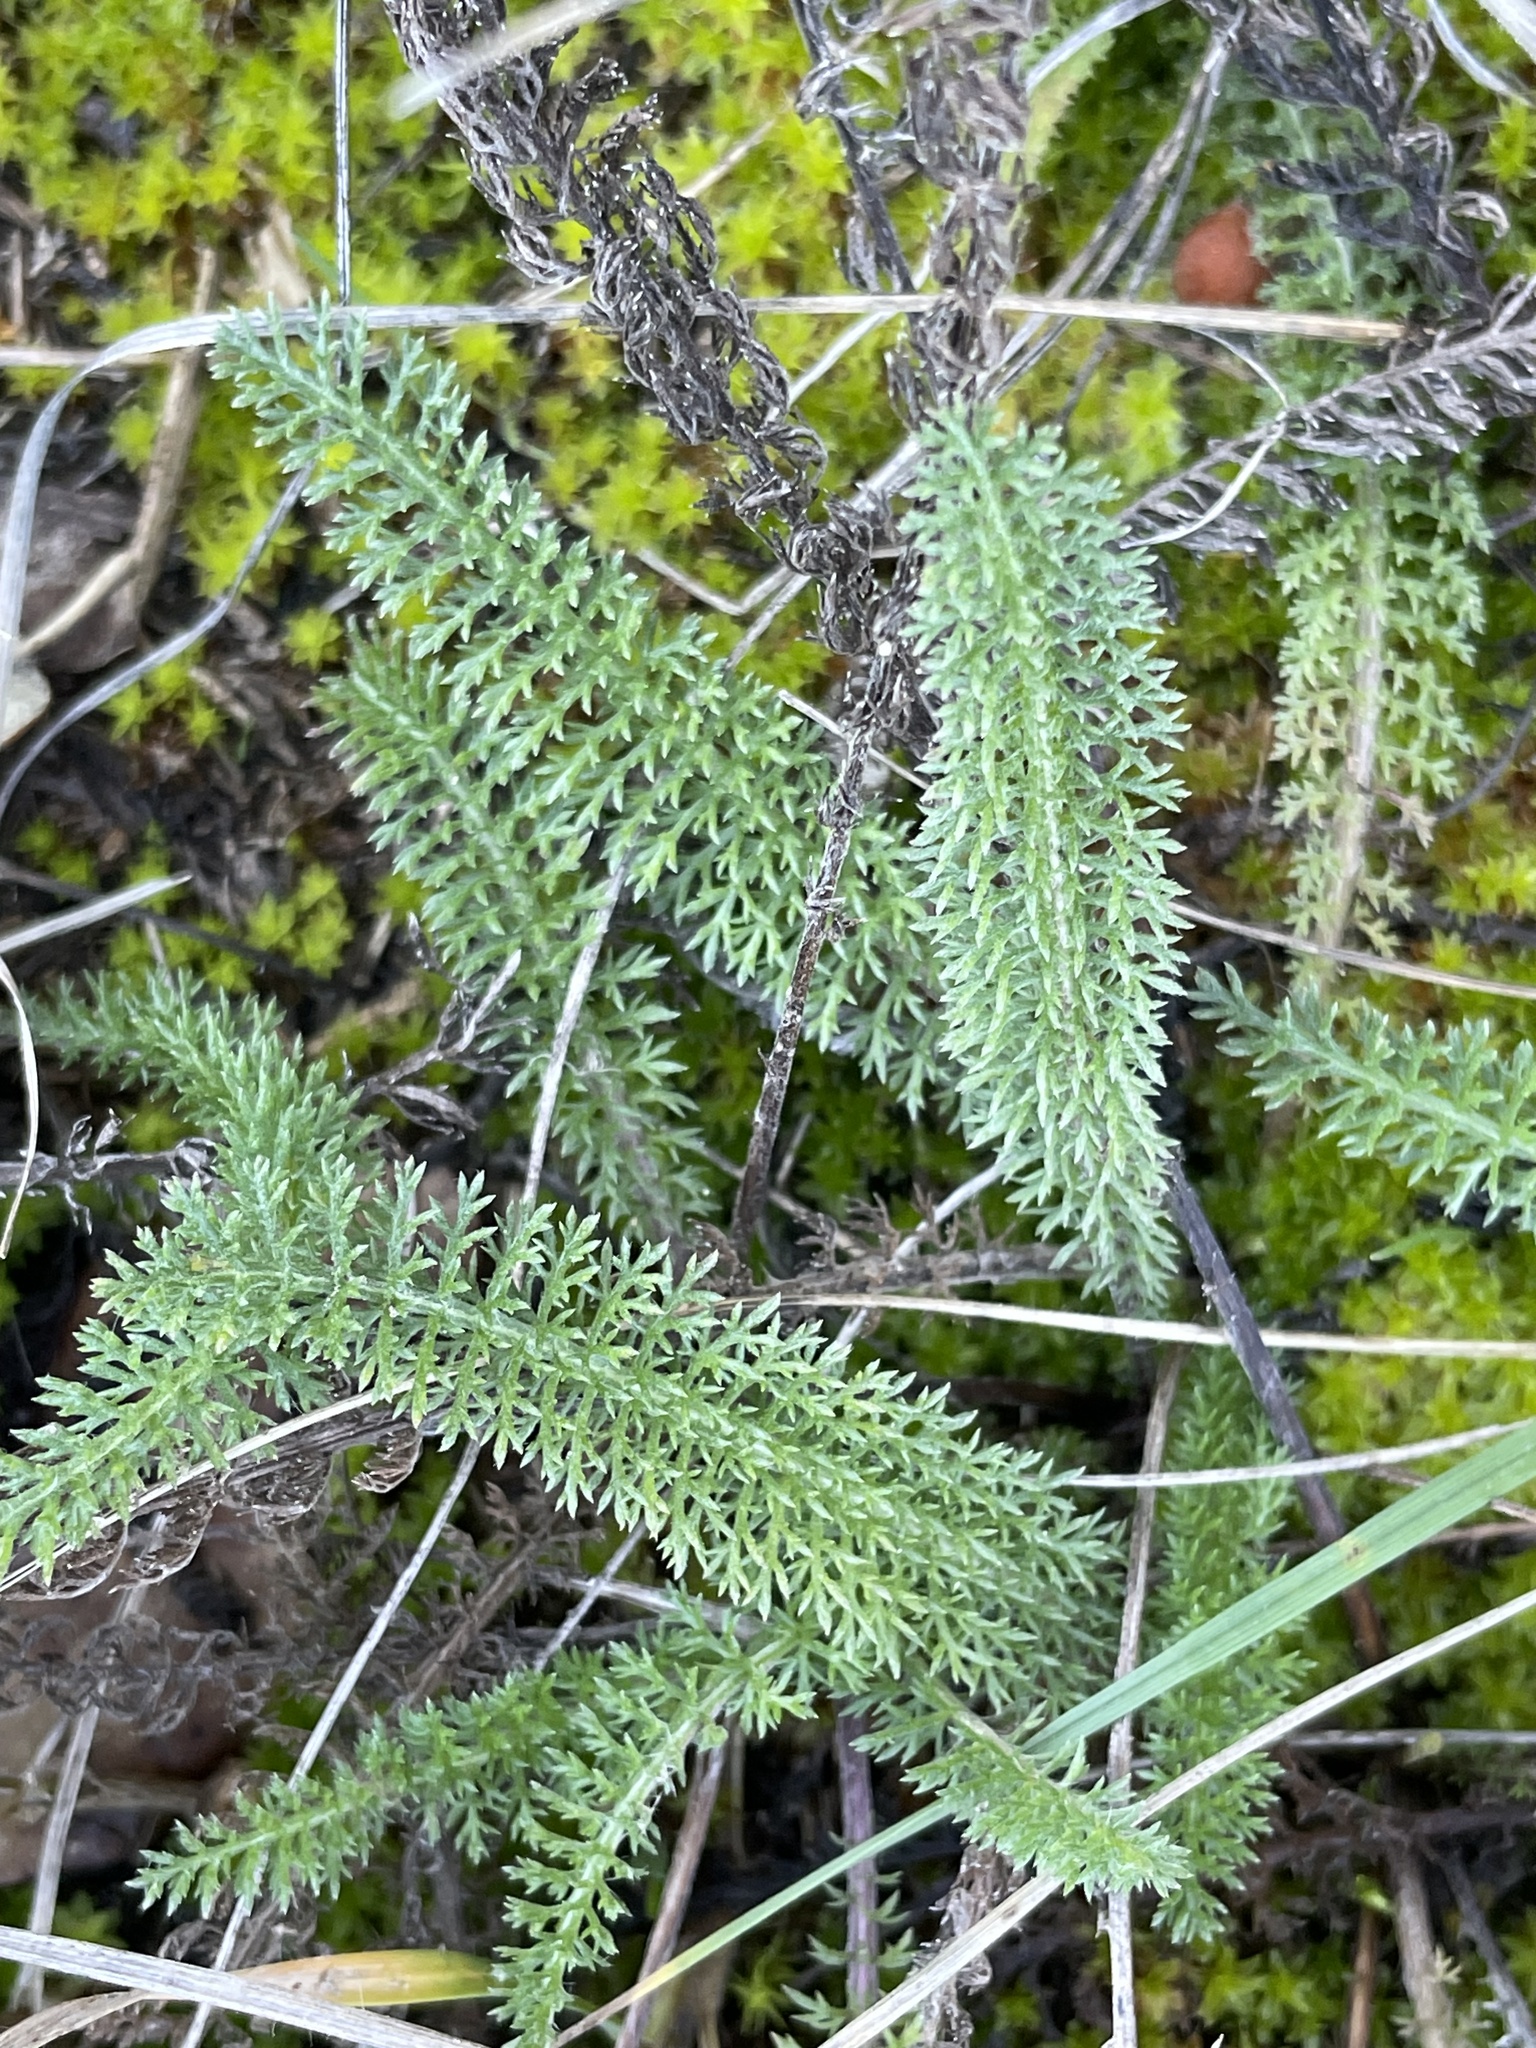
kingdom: Plantae
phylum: Tracheophyta
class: Magnoliopsida
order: Asterales
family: Asteraceae
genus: Achillea
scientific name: Achillea millefolium
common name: Yarrow
